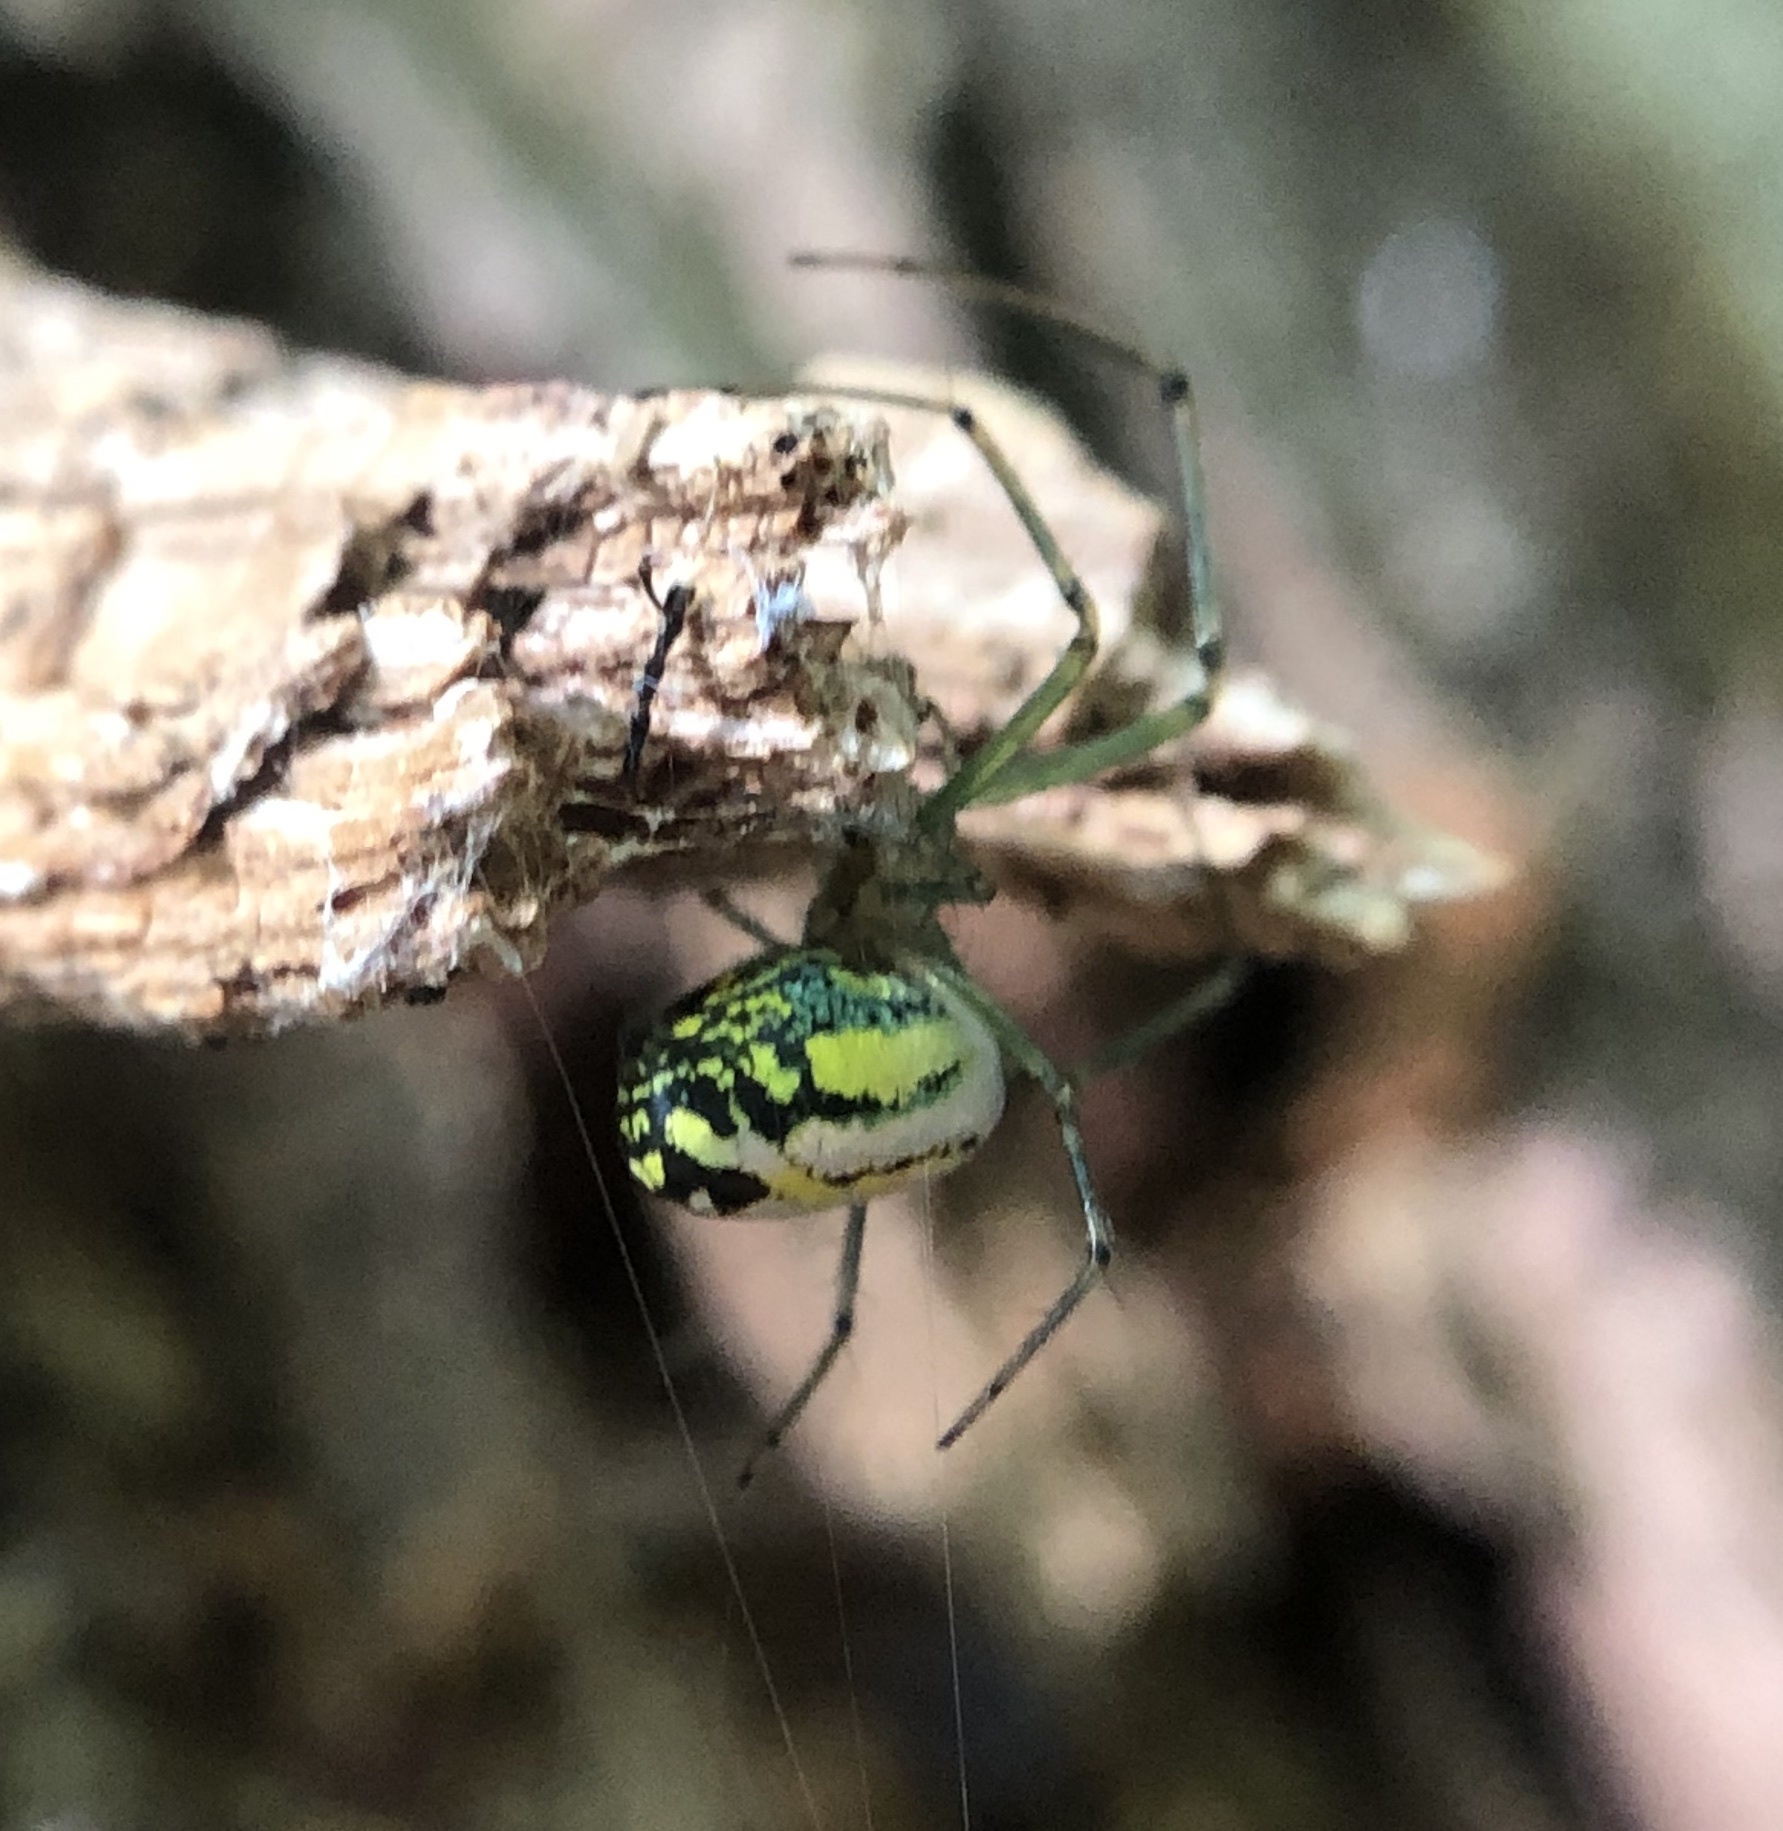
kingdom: Animalia
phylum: Arthropoda
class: Arachnida
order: Araneae
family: Tetragnathidae
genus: Leucauge
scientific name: Leucauge venusta
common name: Longjawed orb weavers
